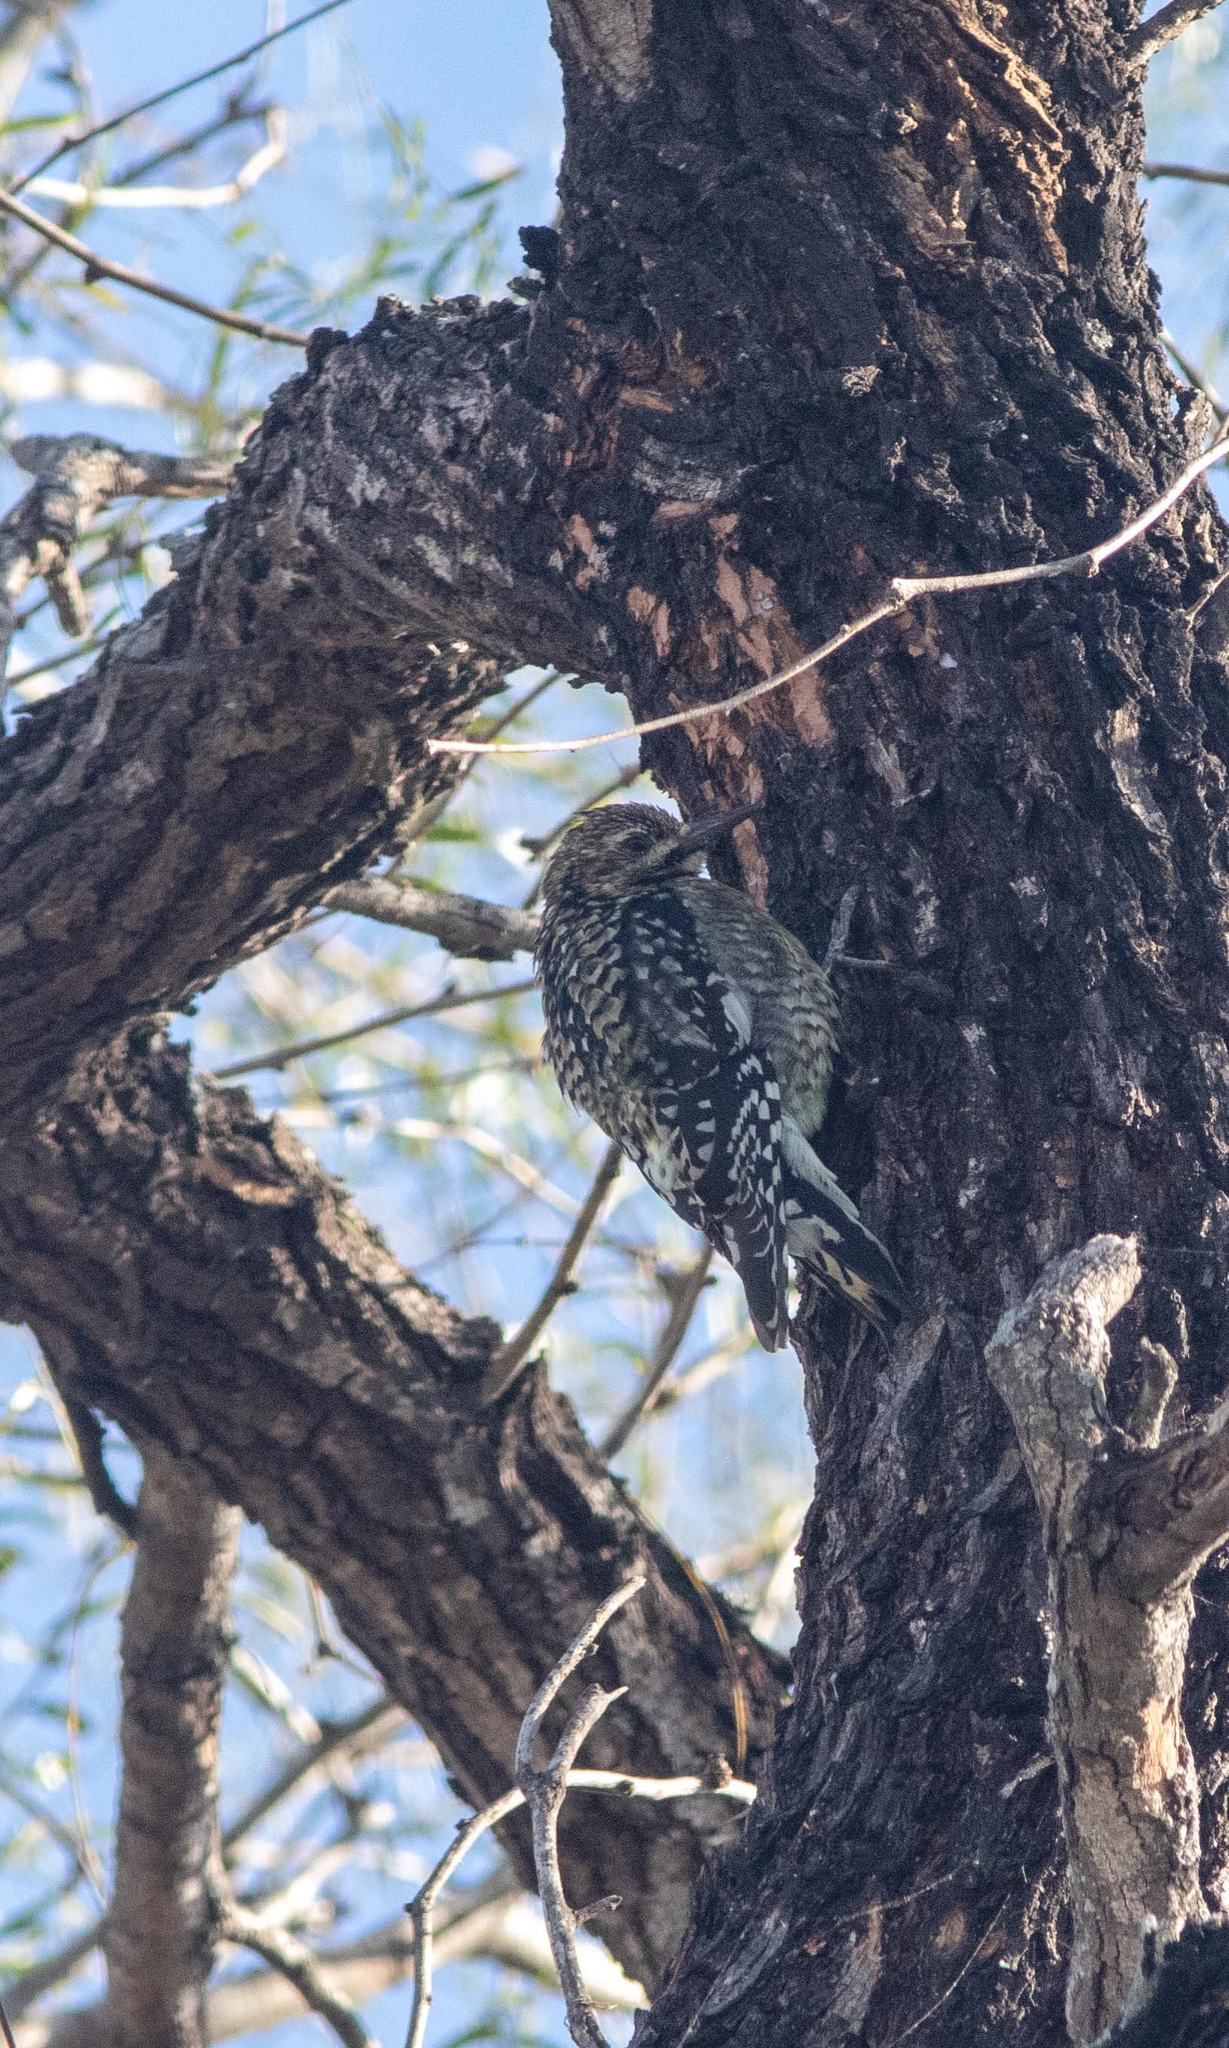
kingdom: Animalia
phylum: Chordata
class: Aves
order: Piciformes
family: Picidae
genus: Sphyrapicus
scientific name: Sphyrapicus varius
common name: Yellow-bellied sapsucker
